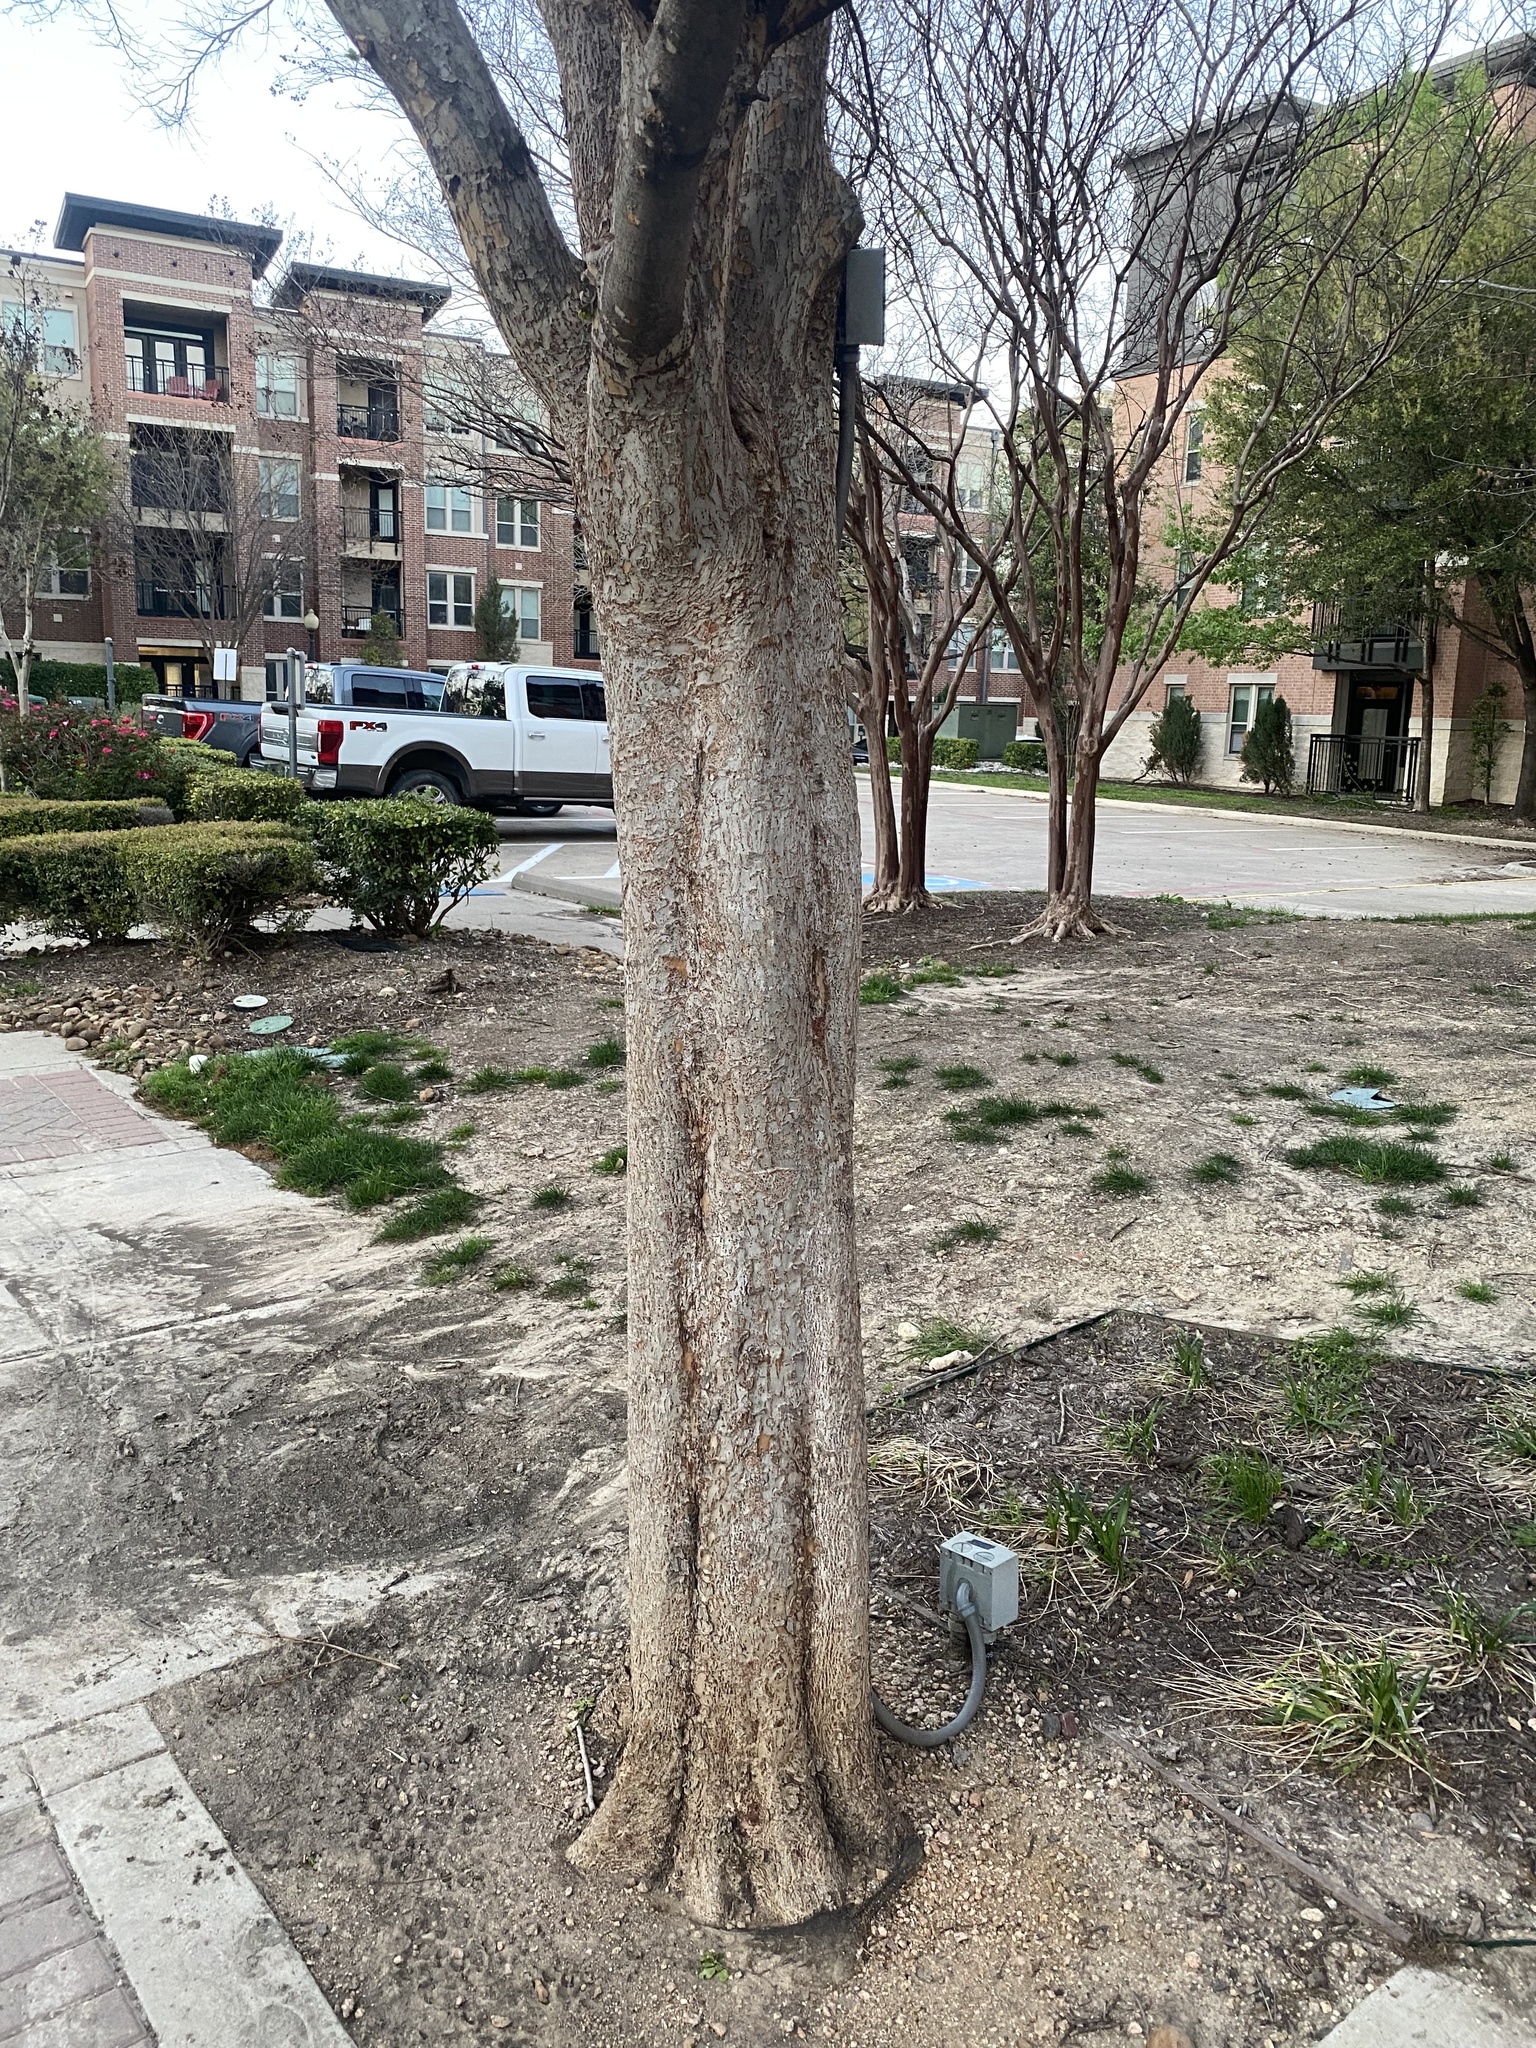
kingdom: Plantae
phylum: Tracheophyta
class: Magnoliopsida
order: Rosales
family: Ulmaceae
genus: Ulmus
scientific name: Ulmus parvifolia
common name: Chinese elm
